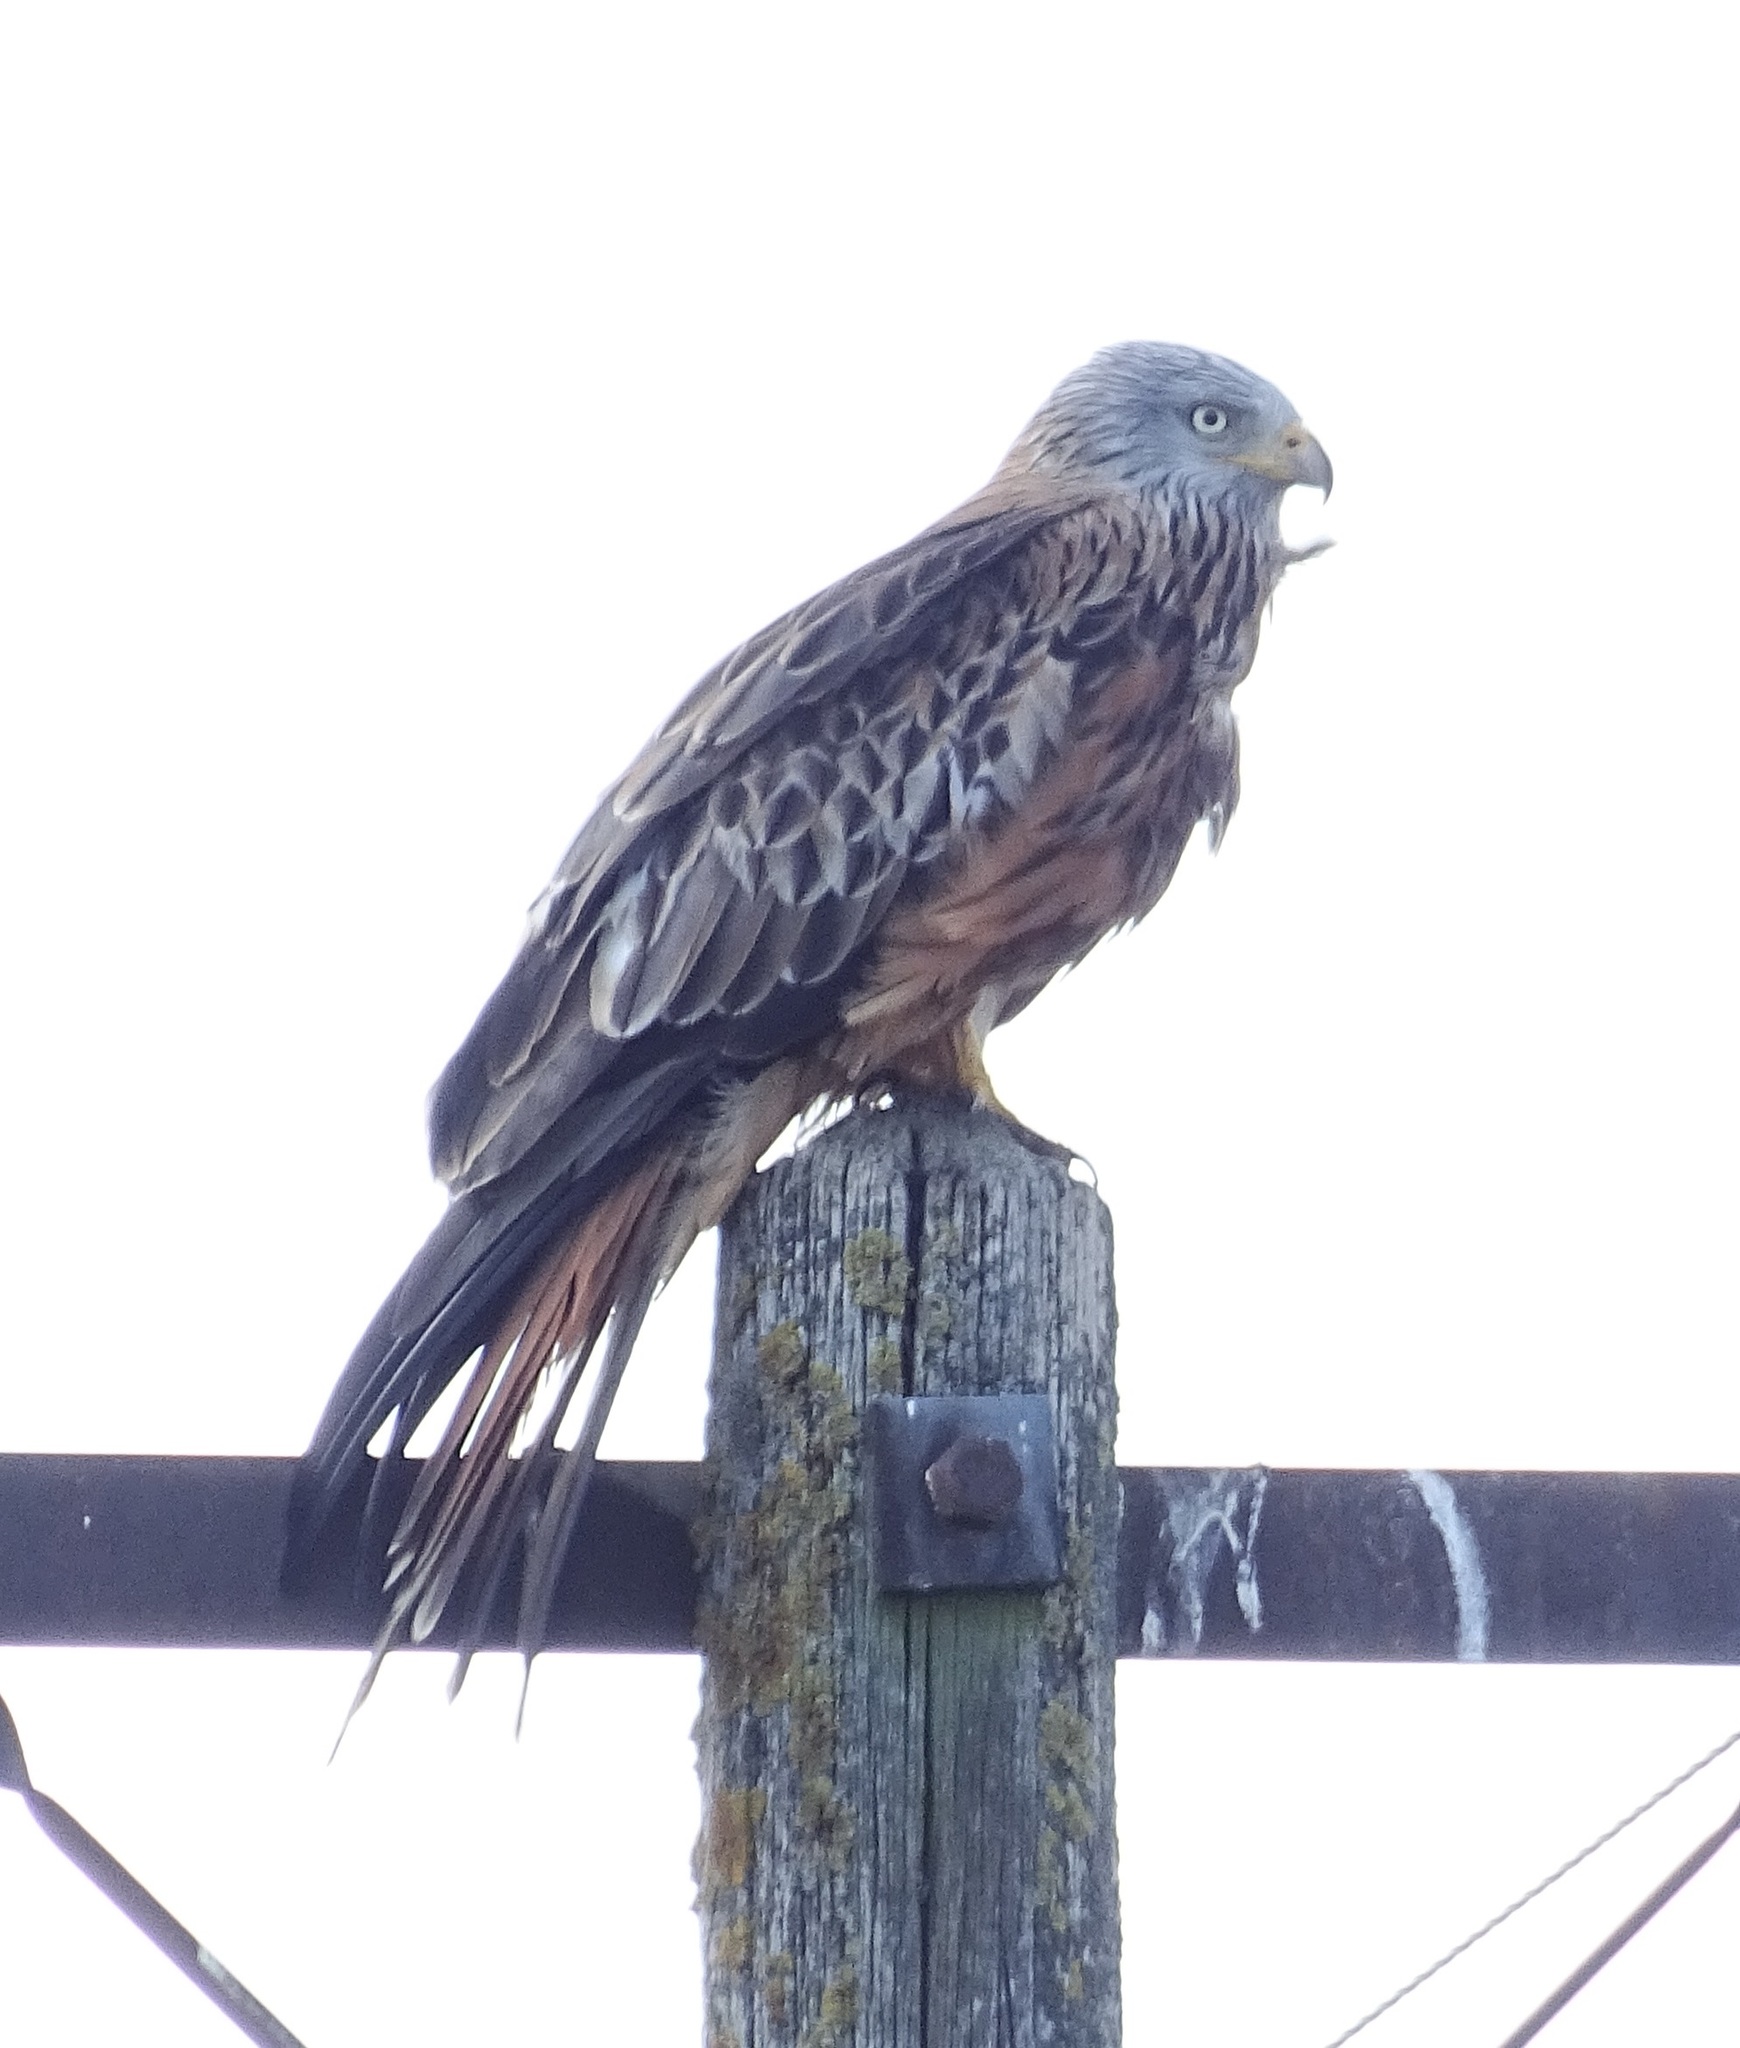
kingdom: Animalia
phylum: Chordata
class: Aves
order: Accipitriformes
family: Accipitridae
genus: Milvus
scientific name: Milvus milvus
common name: Red kite
